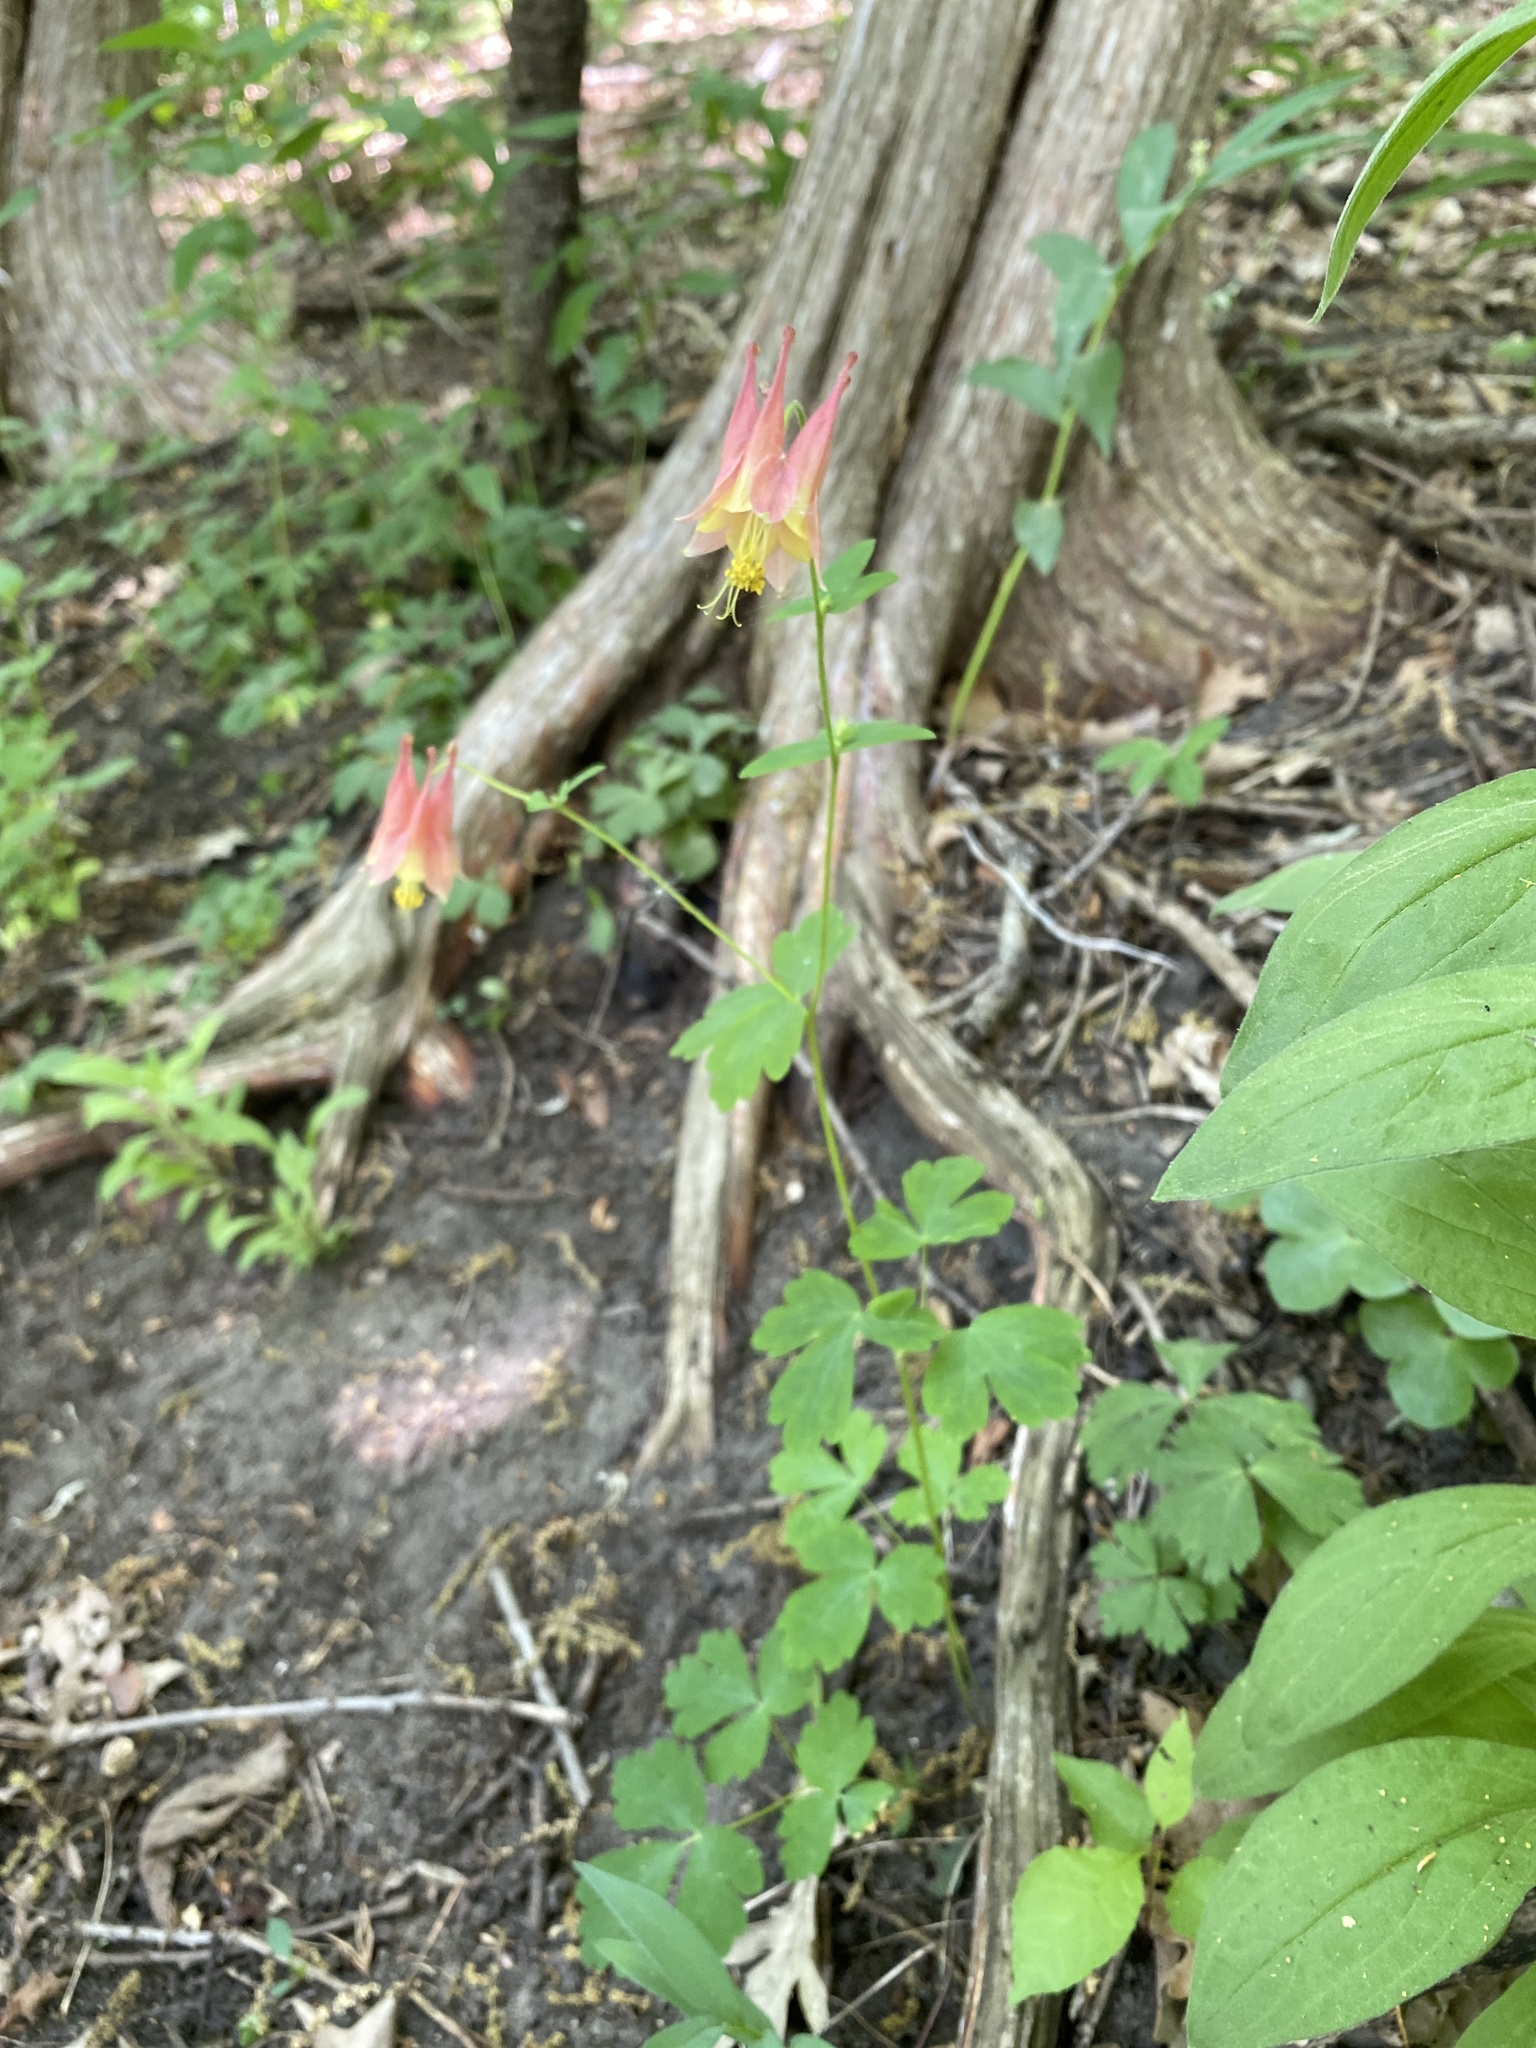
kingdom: Plantae
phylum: Tracheophyta
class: Magnoliopsida
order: Ranunculales
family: Ranunculaceae
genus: Aquilegia
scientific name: Aquilegia canadensis
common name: American columbine
